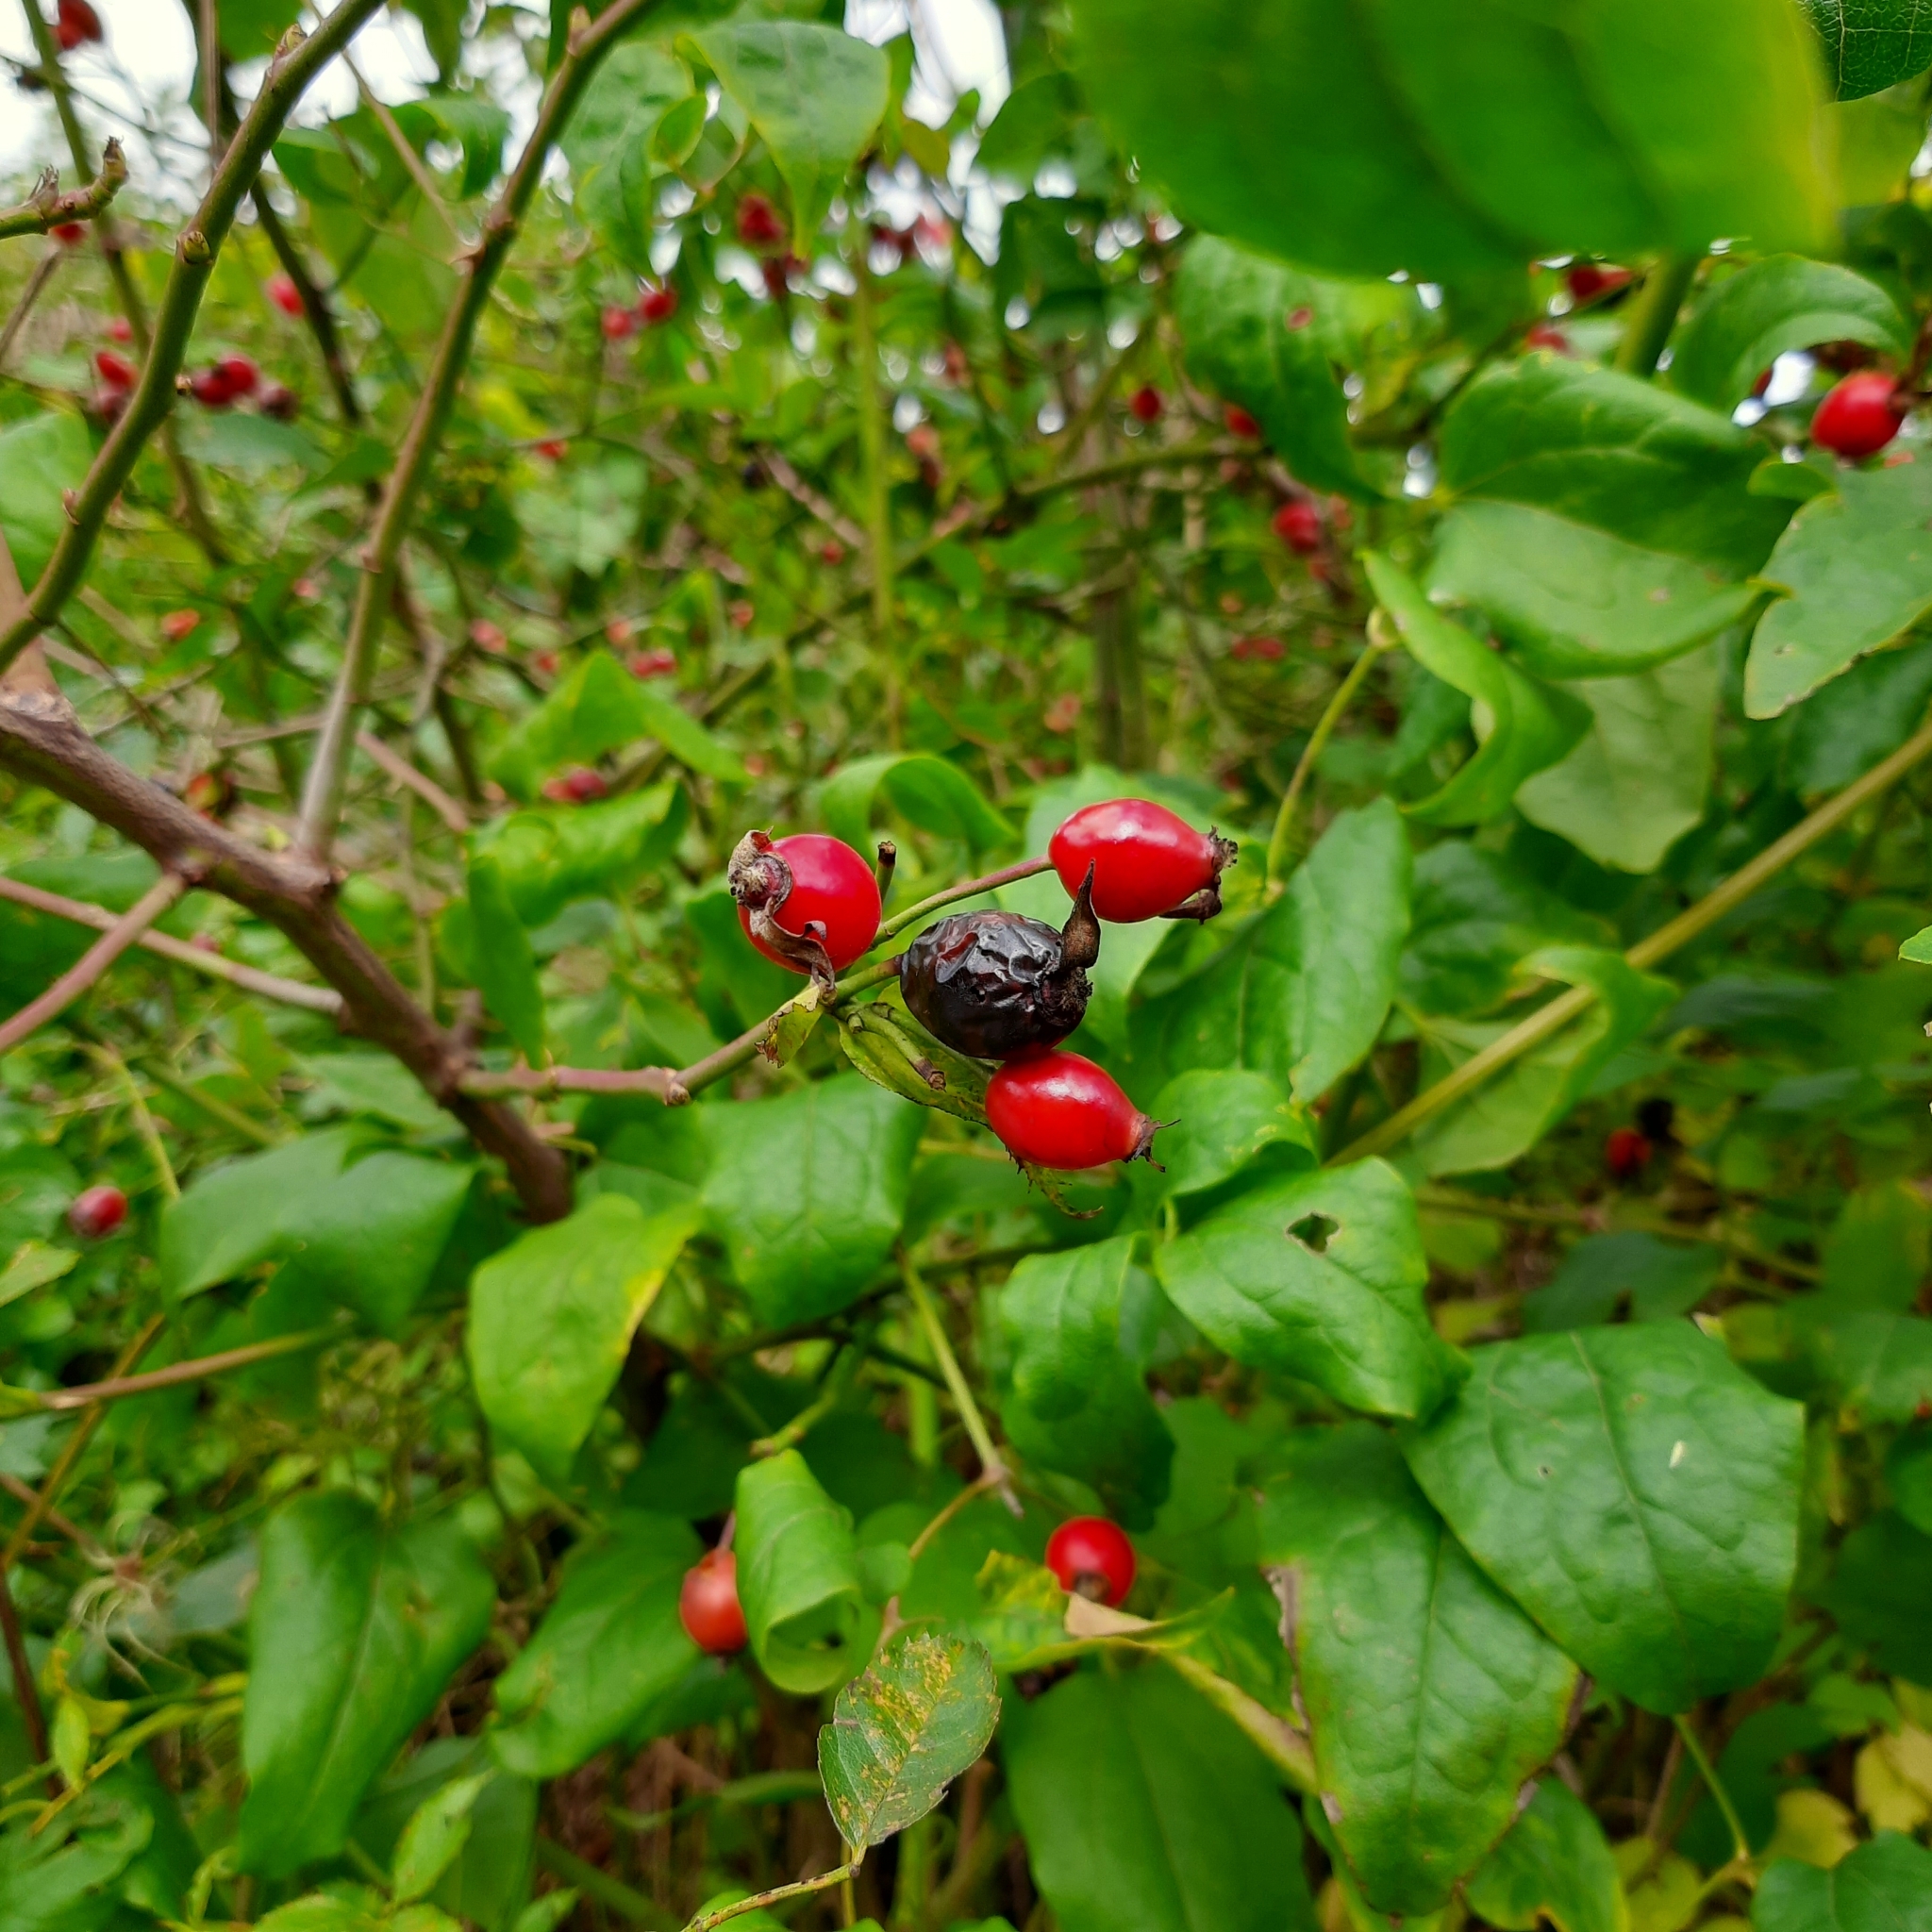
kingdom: Plantae
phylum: Tracheophyta
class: Magnoliopsida
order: Rosales
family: Rosaceae
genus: Rosa
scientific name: Rosa
